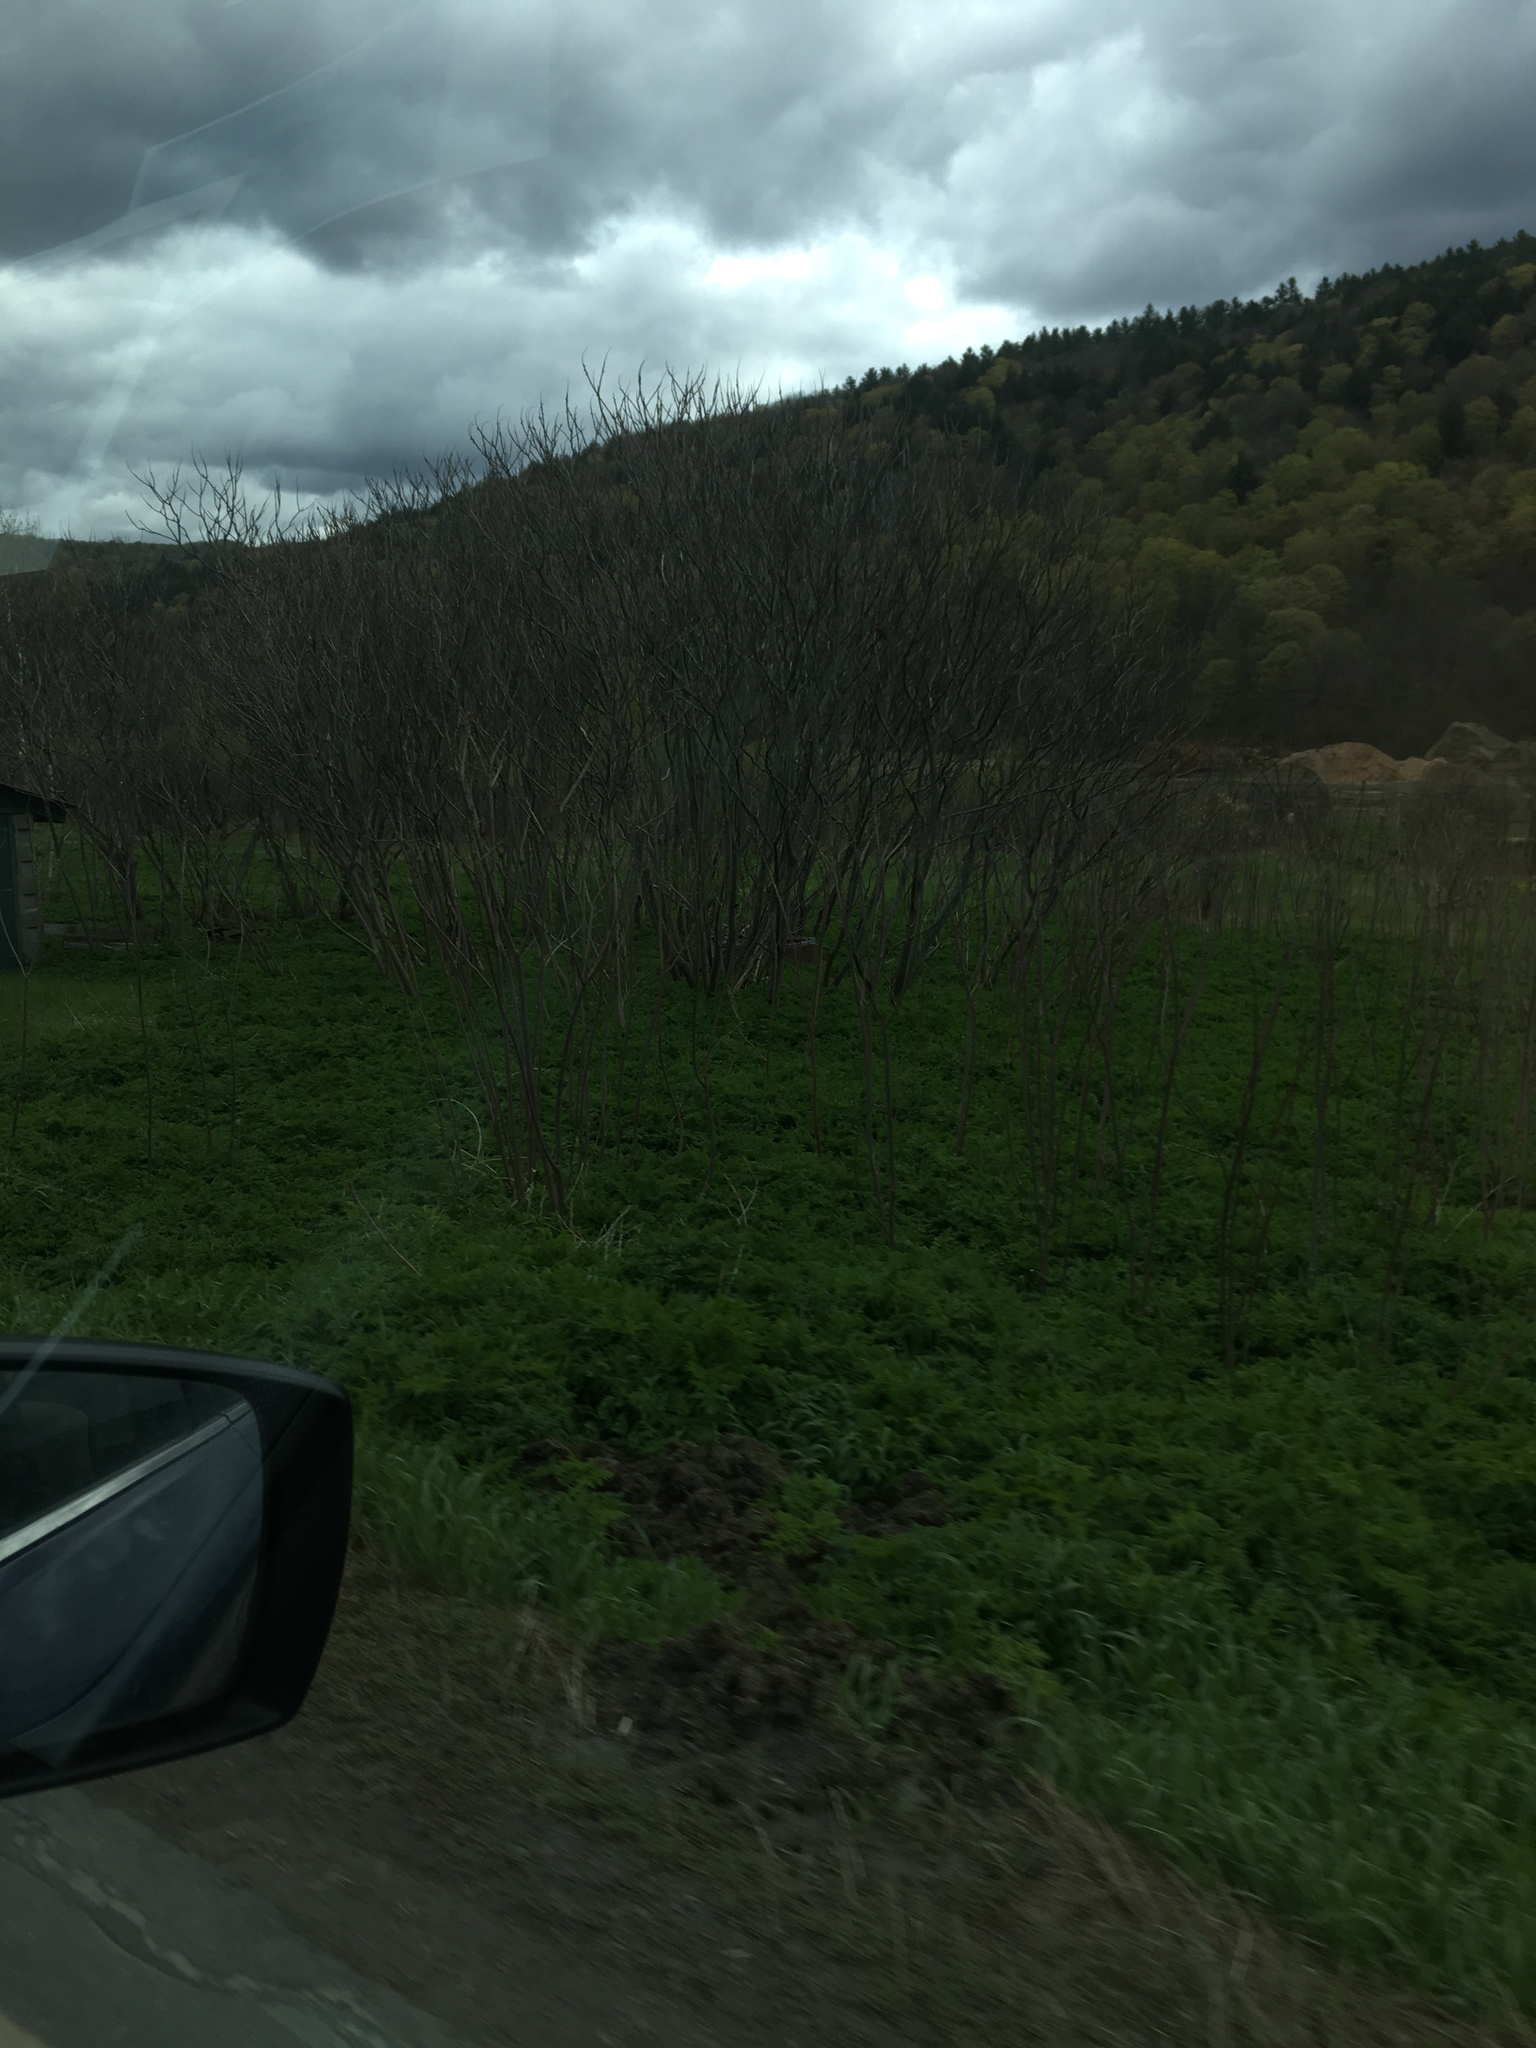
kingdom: Plantae
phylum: Tracheophyta
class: Magnoliopsida
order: Sapindales
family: Anacardiaceae
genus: Rhus
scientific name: Rhus typhina
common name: Staghorn sumac
